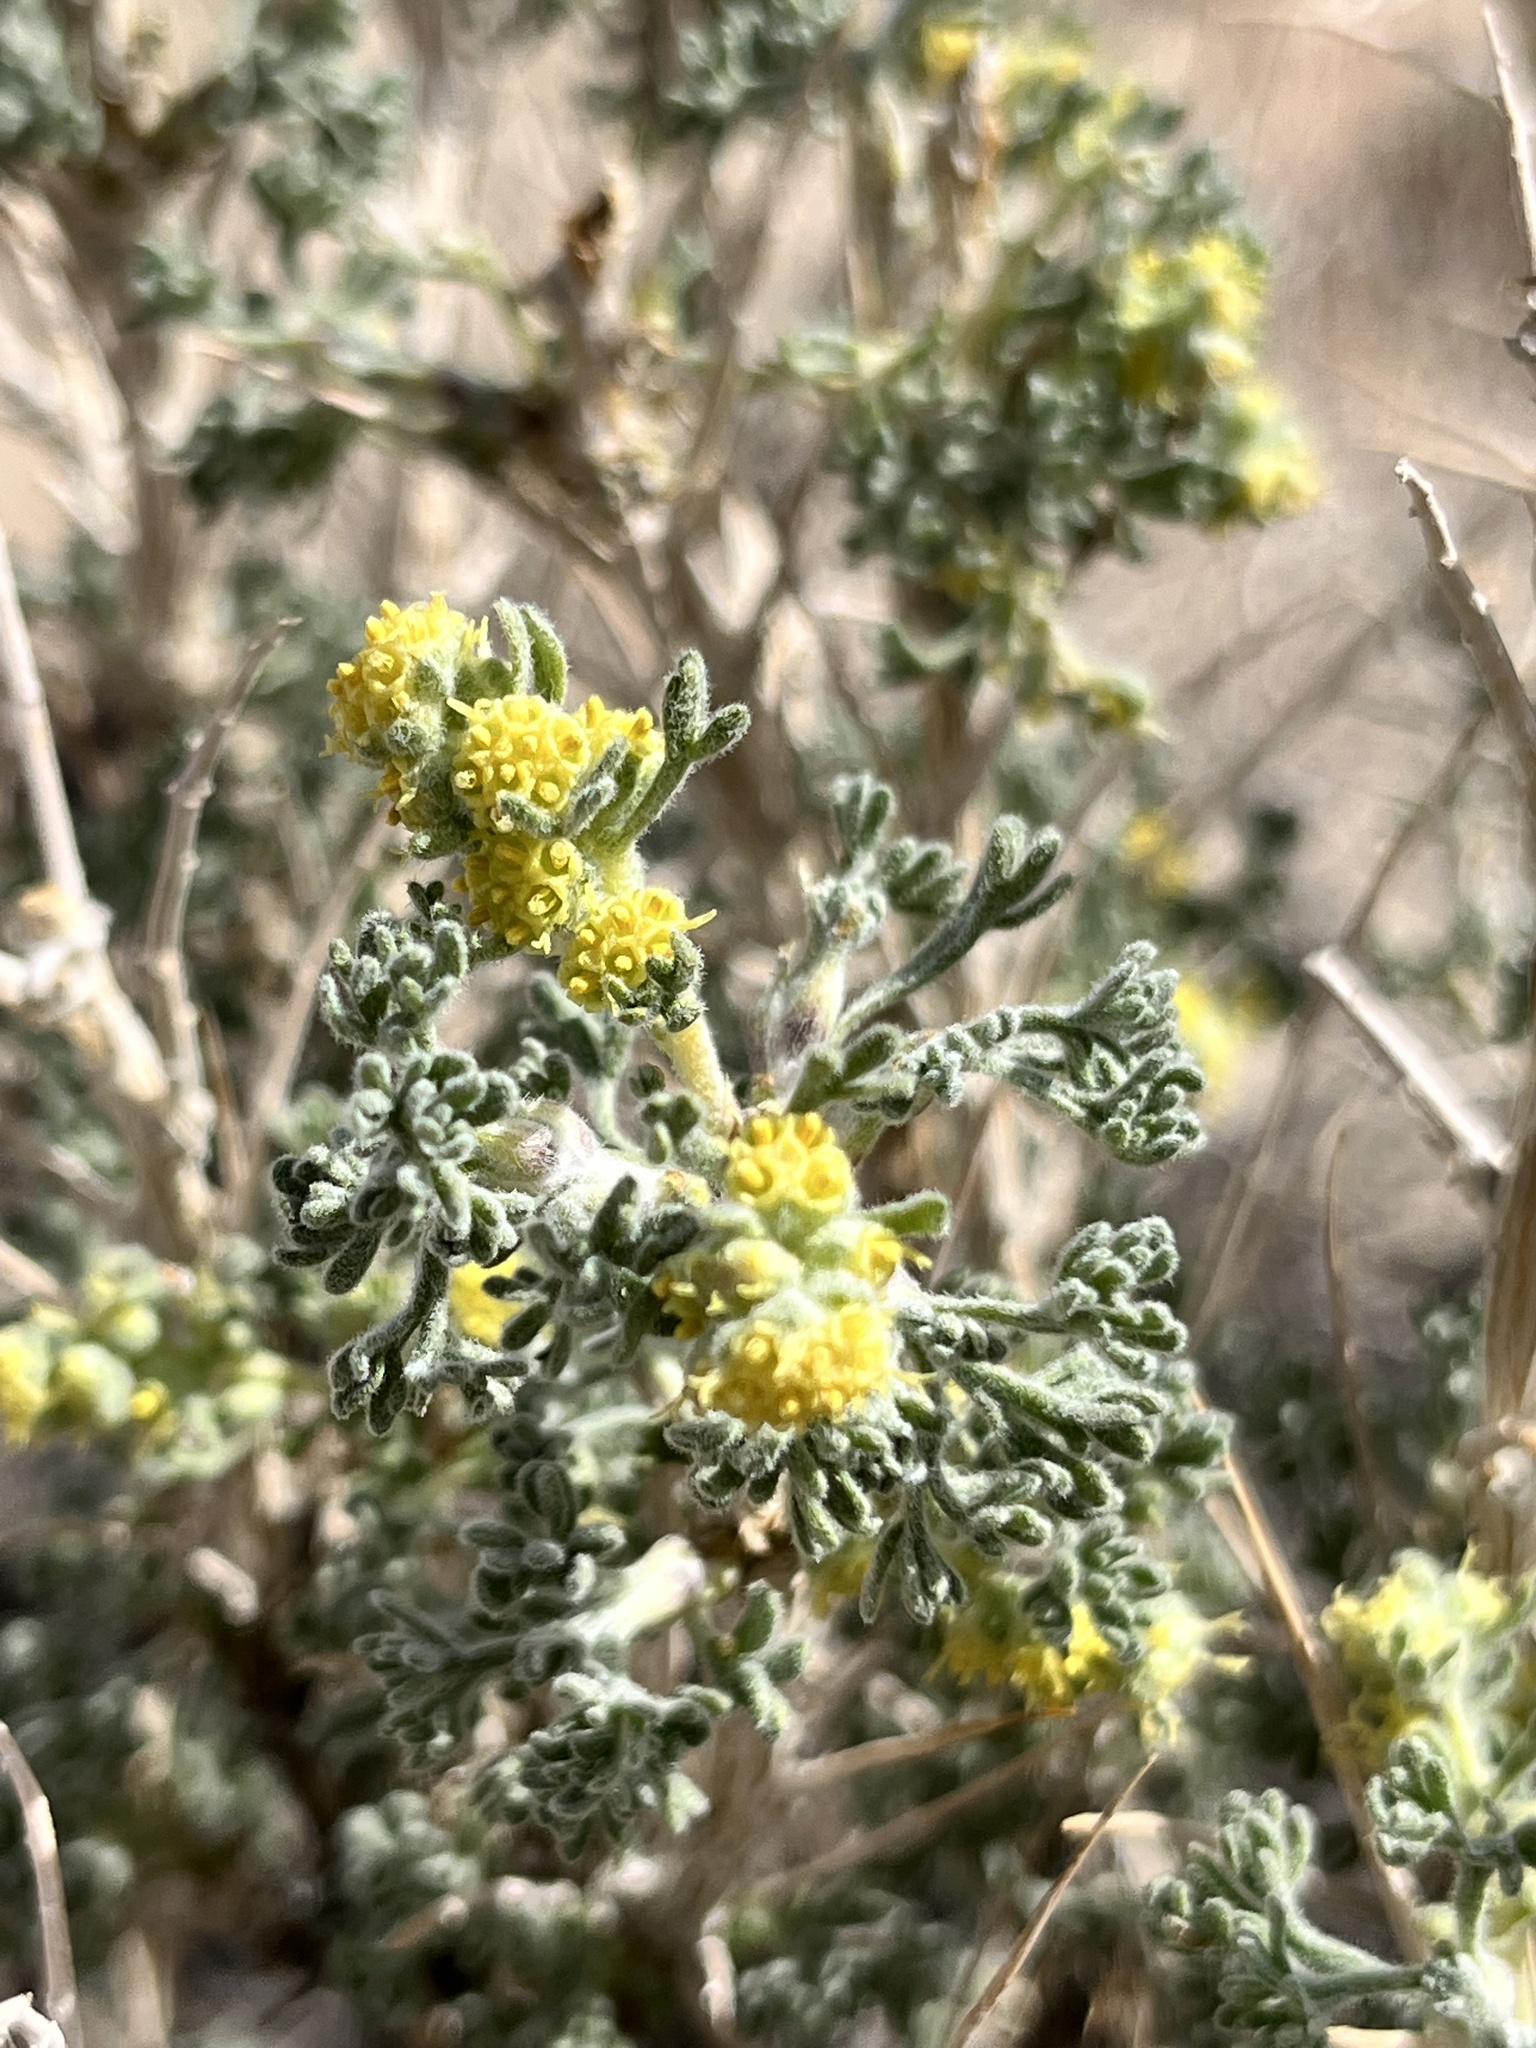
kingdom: Plantae
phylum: Tracheophyta
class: Magnoliopsida
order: Asterales
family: Asteraceae
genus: Artemisia
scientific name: Artemisia spinescens
